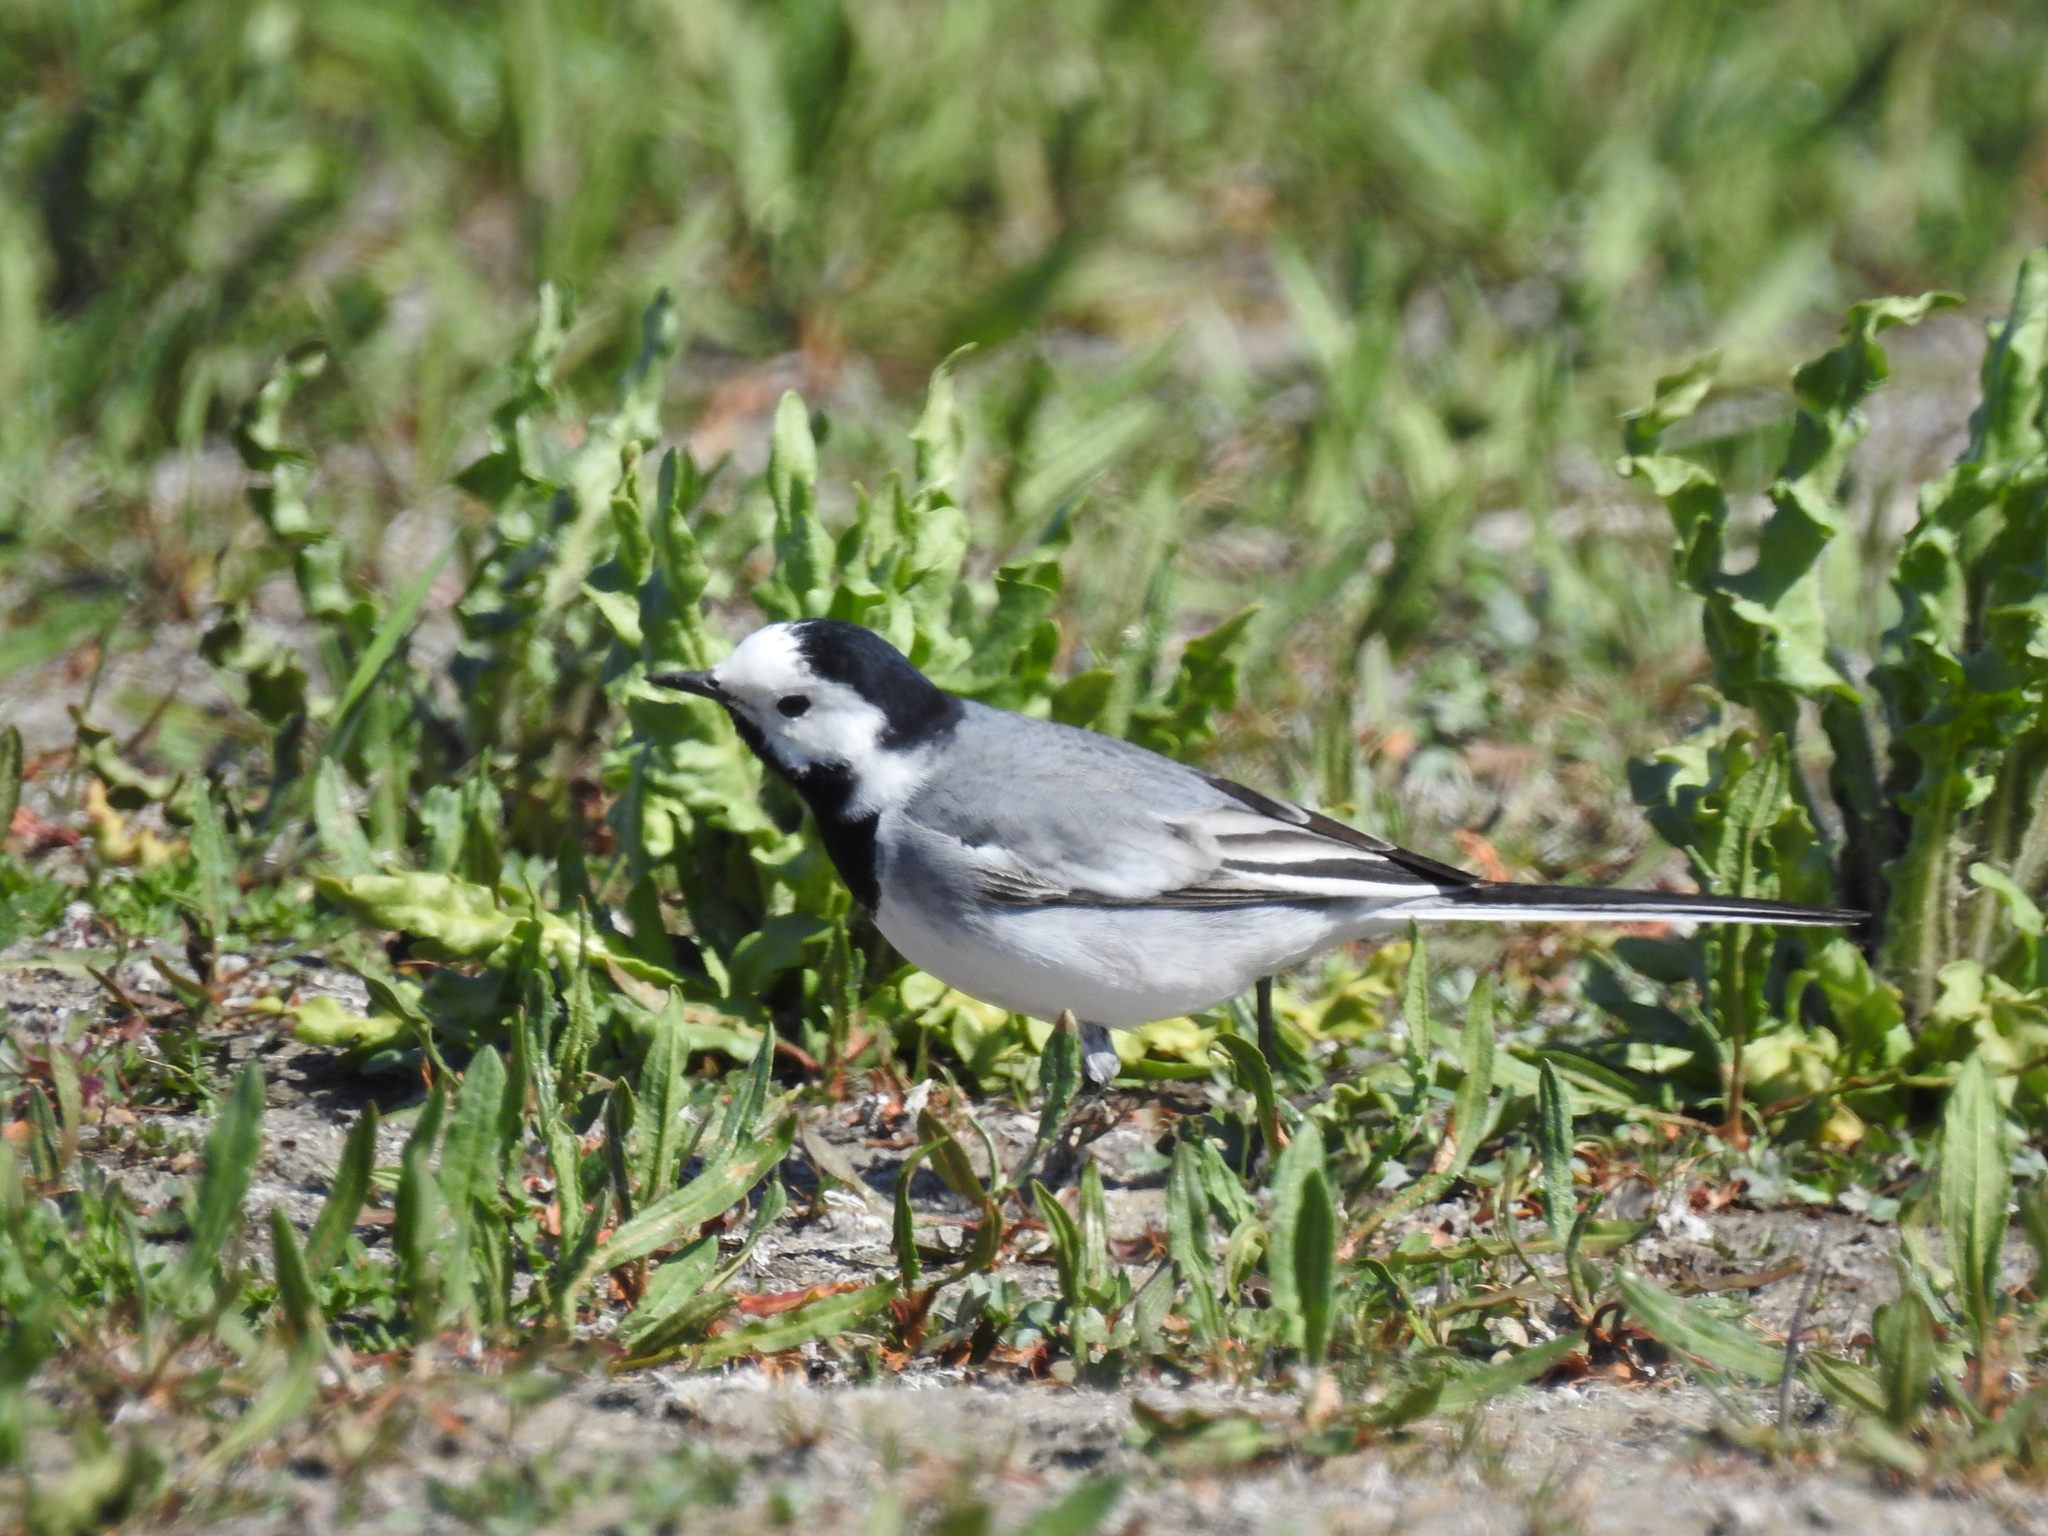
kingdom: Animalia
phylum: Chordata
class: Aves
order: Passeriformes
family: Motacillidae
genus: Motacilla
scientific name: Motacilla alba
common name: White wagtail
